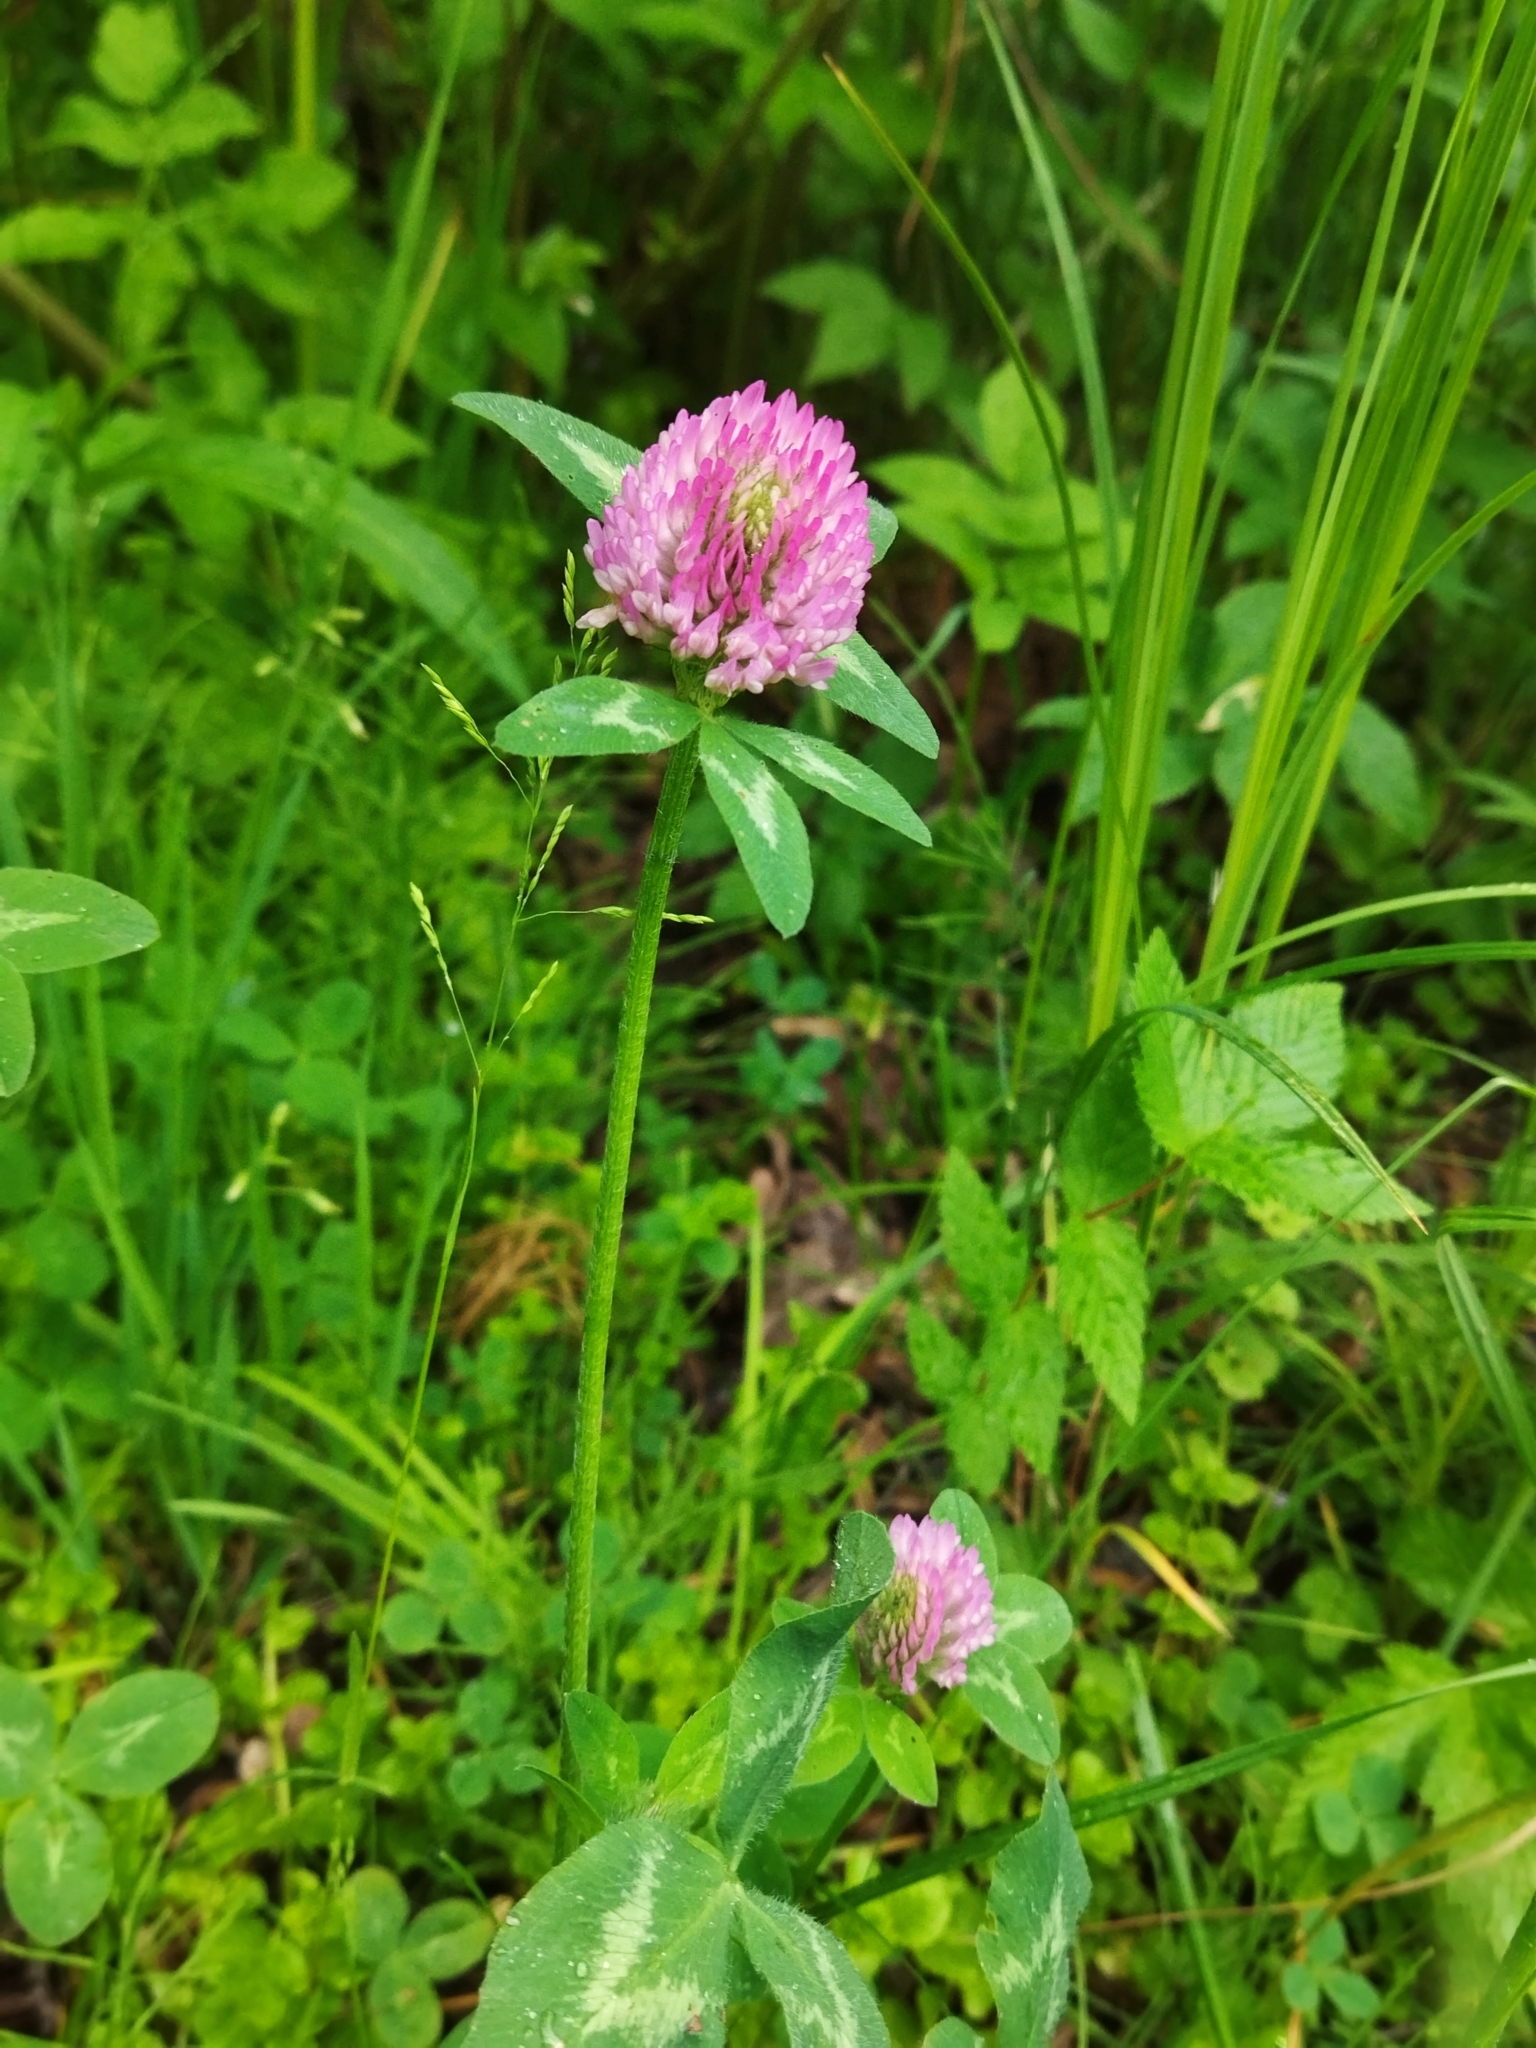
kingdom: Plantae
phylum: Tracheophyta
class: Magnoliopsida
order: Fabales
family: Fabaceae
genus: Trifolium
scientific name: Trifolium pratense
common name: Red clover
